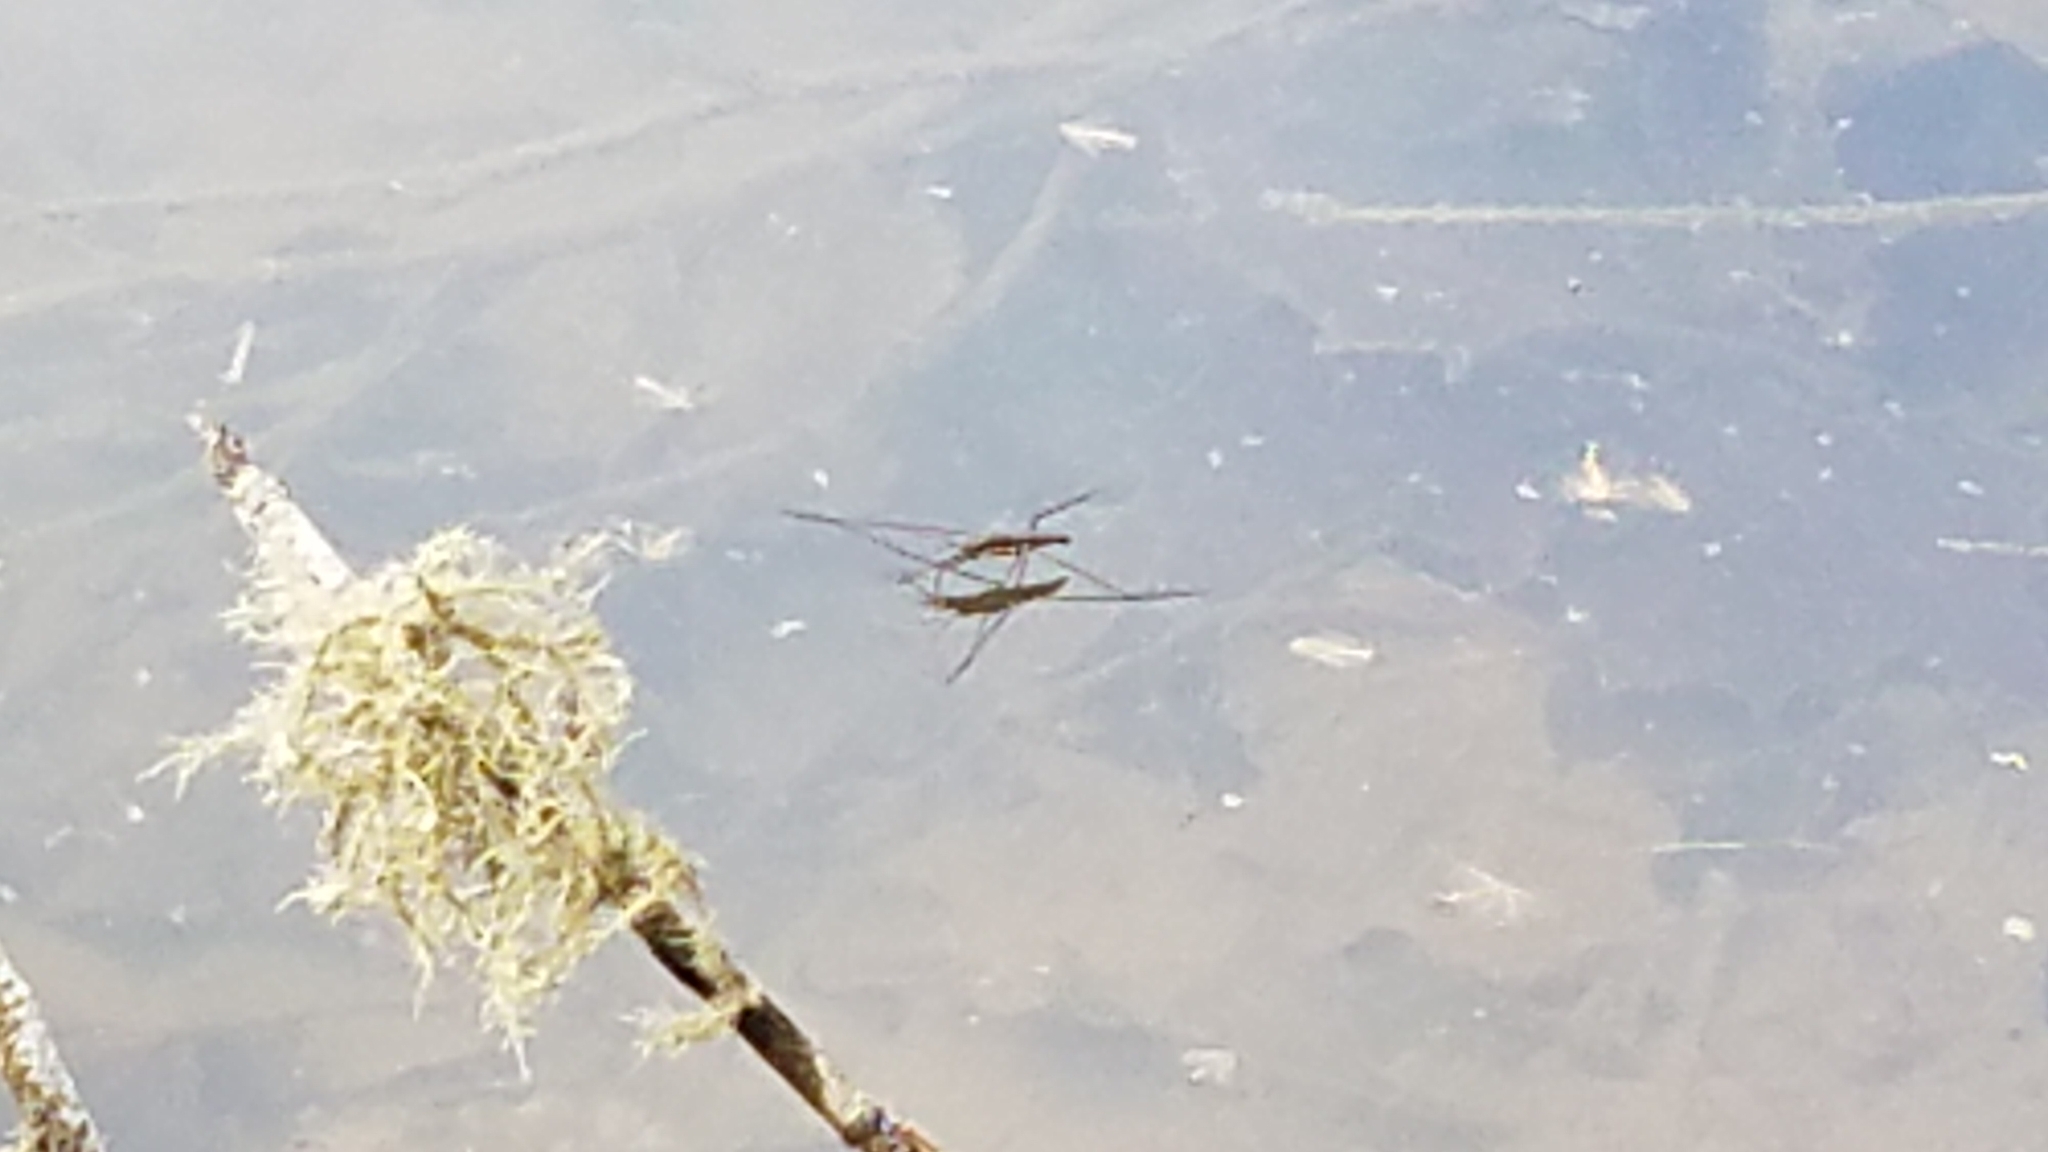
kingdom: Animalia
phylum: Arthropoda
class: Insecta
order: Hemiptera
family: Gerridae
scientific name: Gerridae
